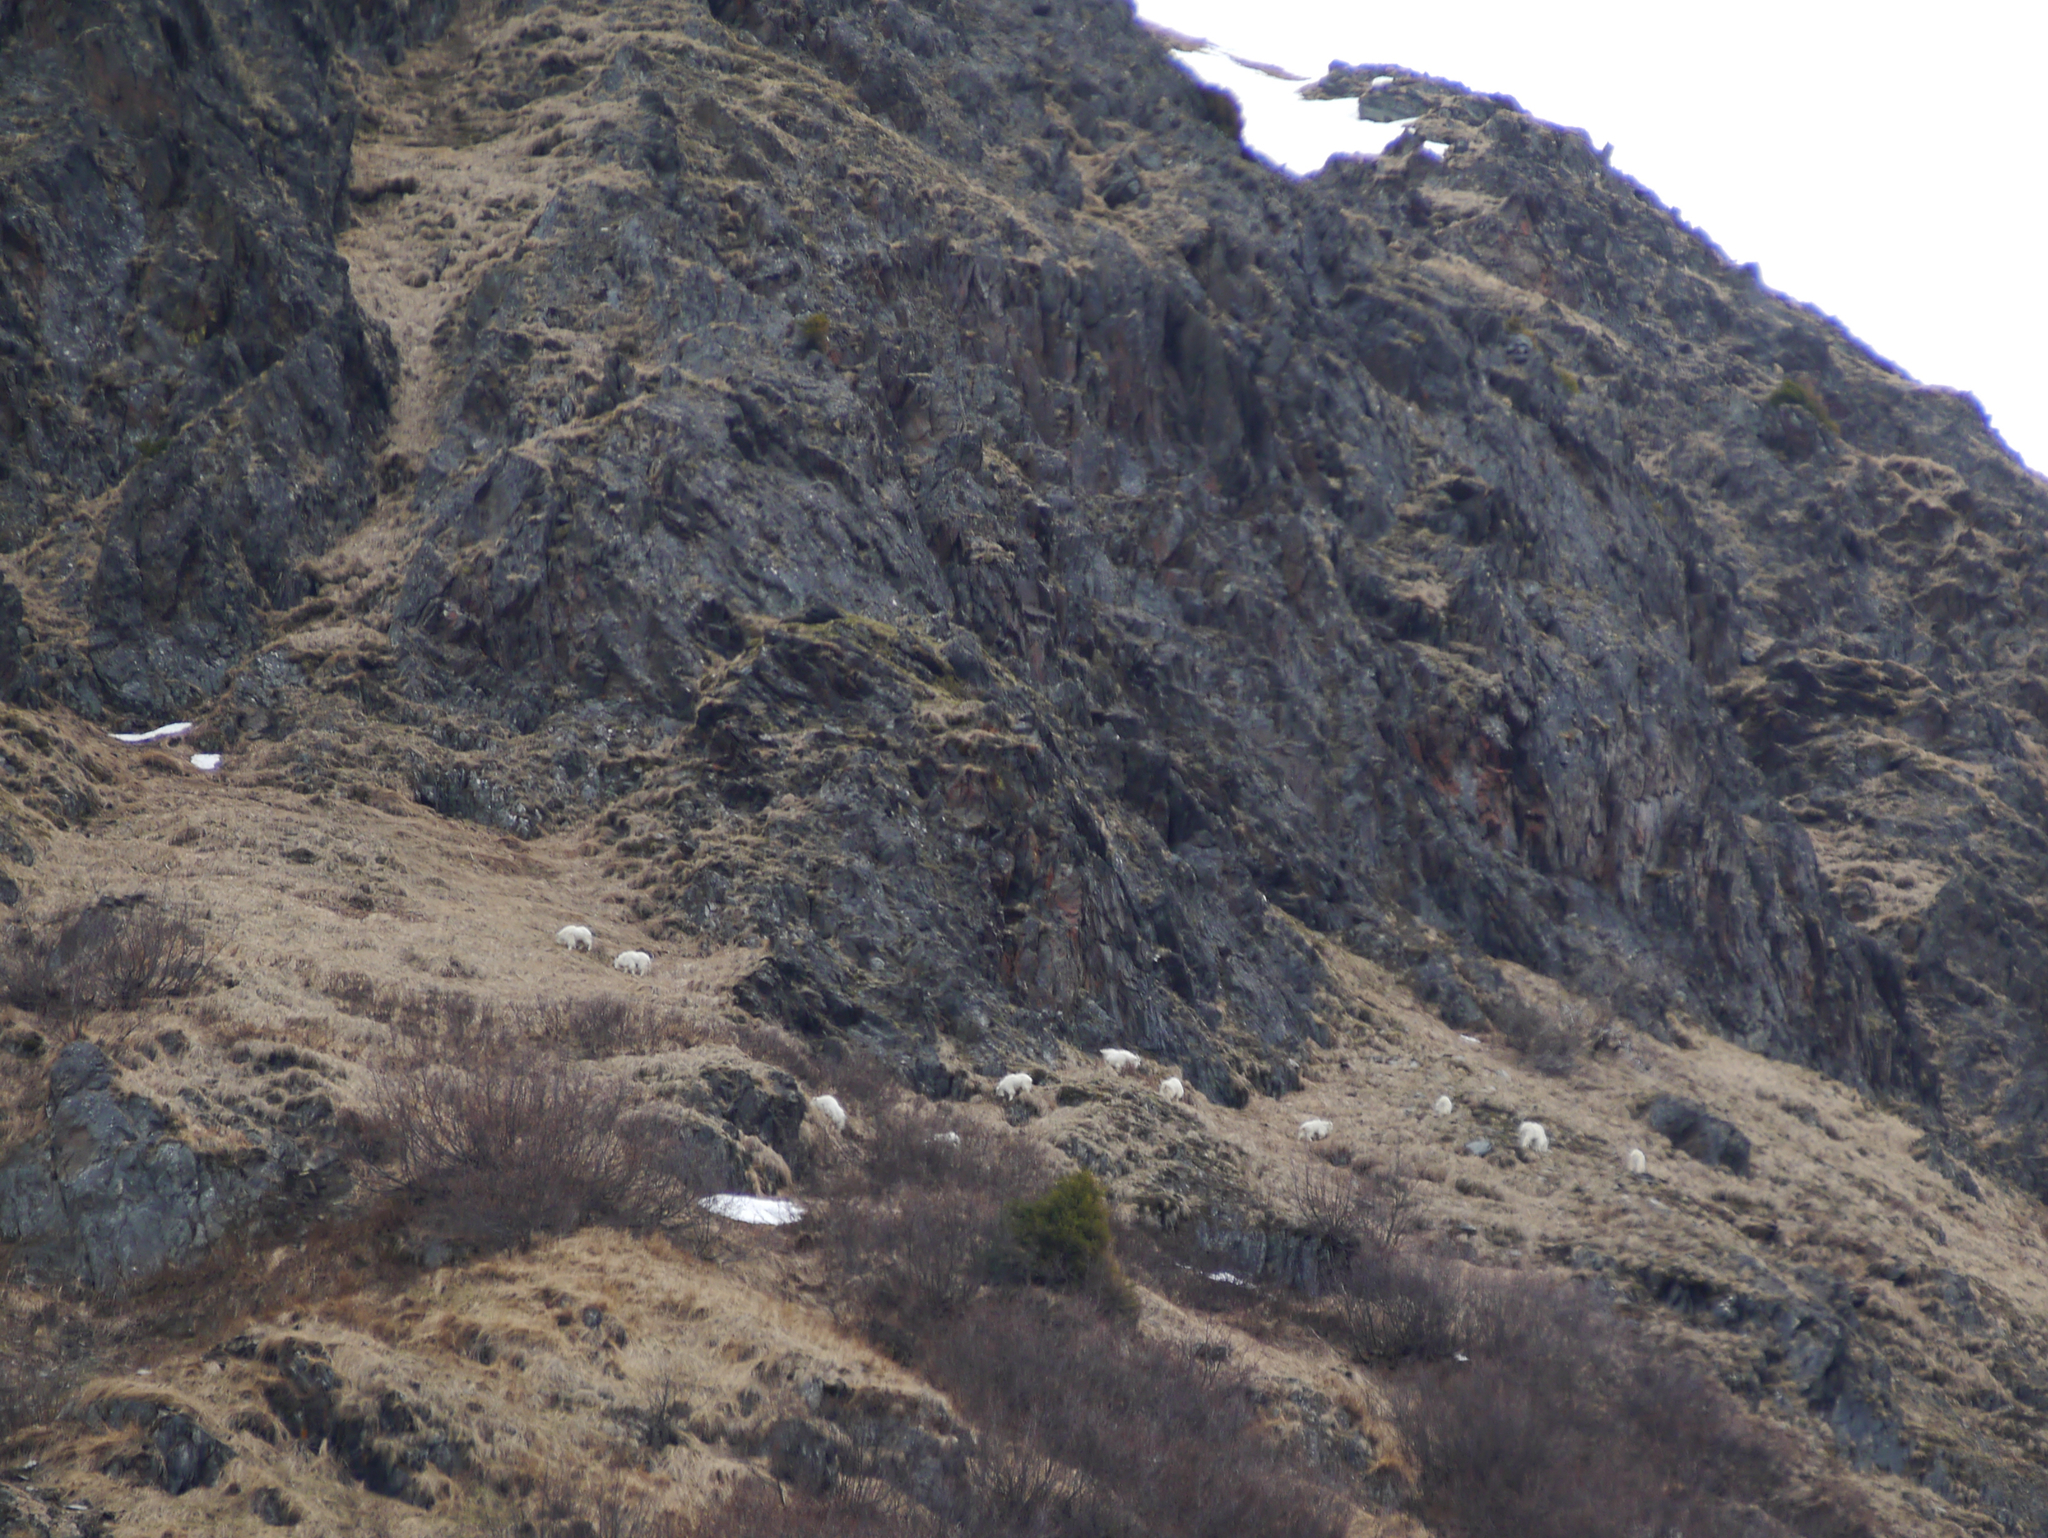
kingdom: Animalia
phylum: Chordata
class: Mammalia
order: Artiodactyla
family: Bovidae
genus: Oreamnos
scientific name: Oreamnos americanus
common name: Mountain goat
